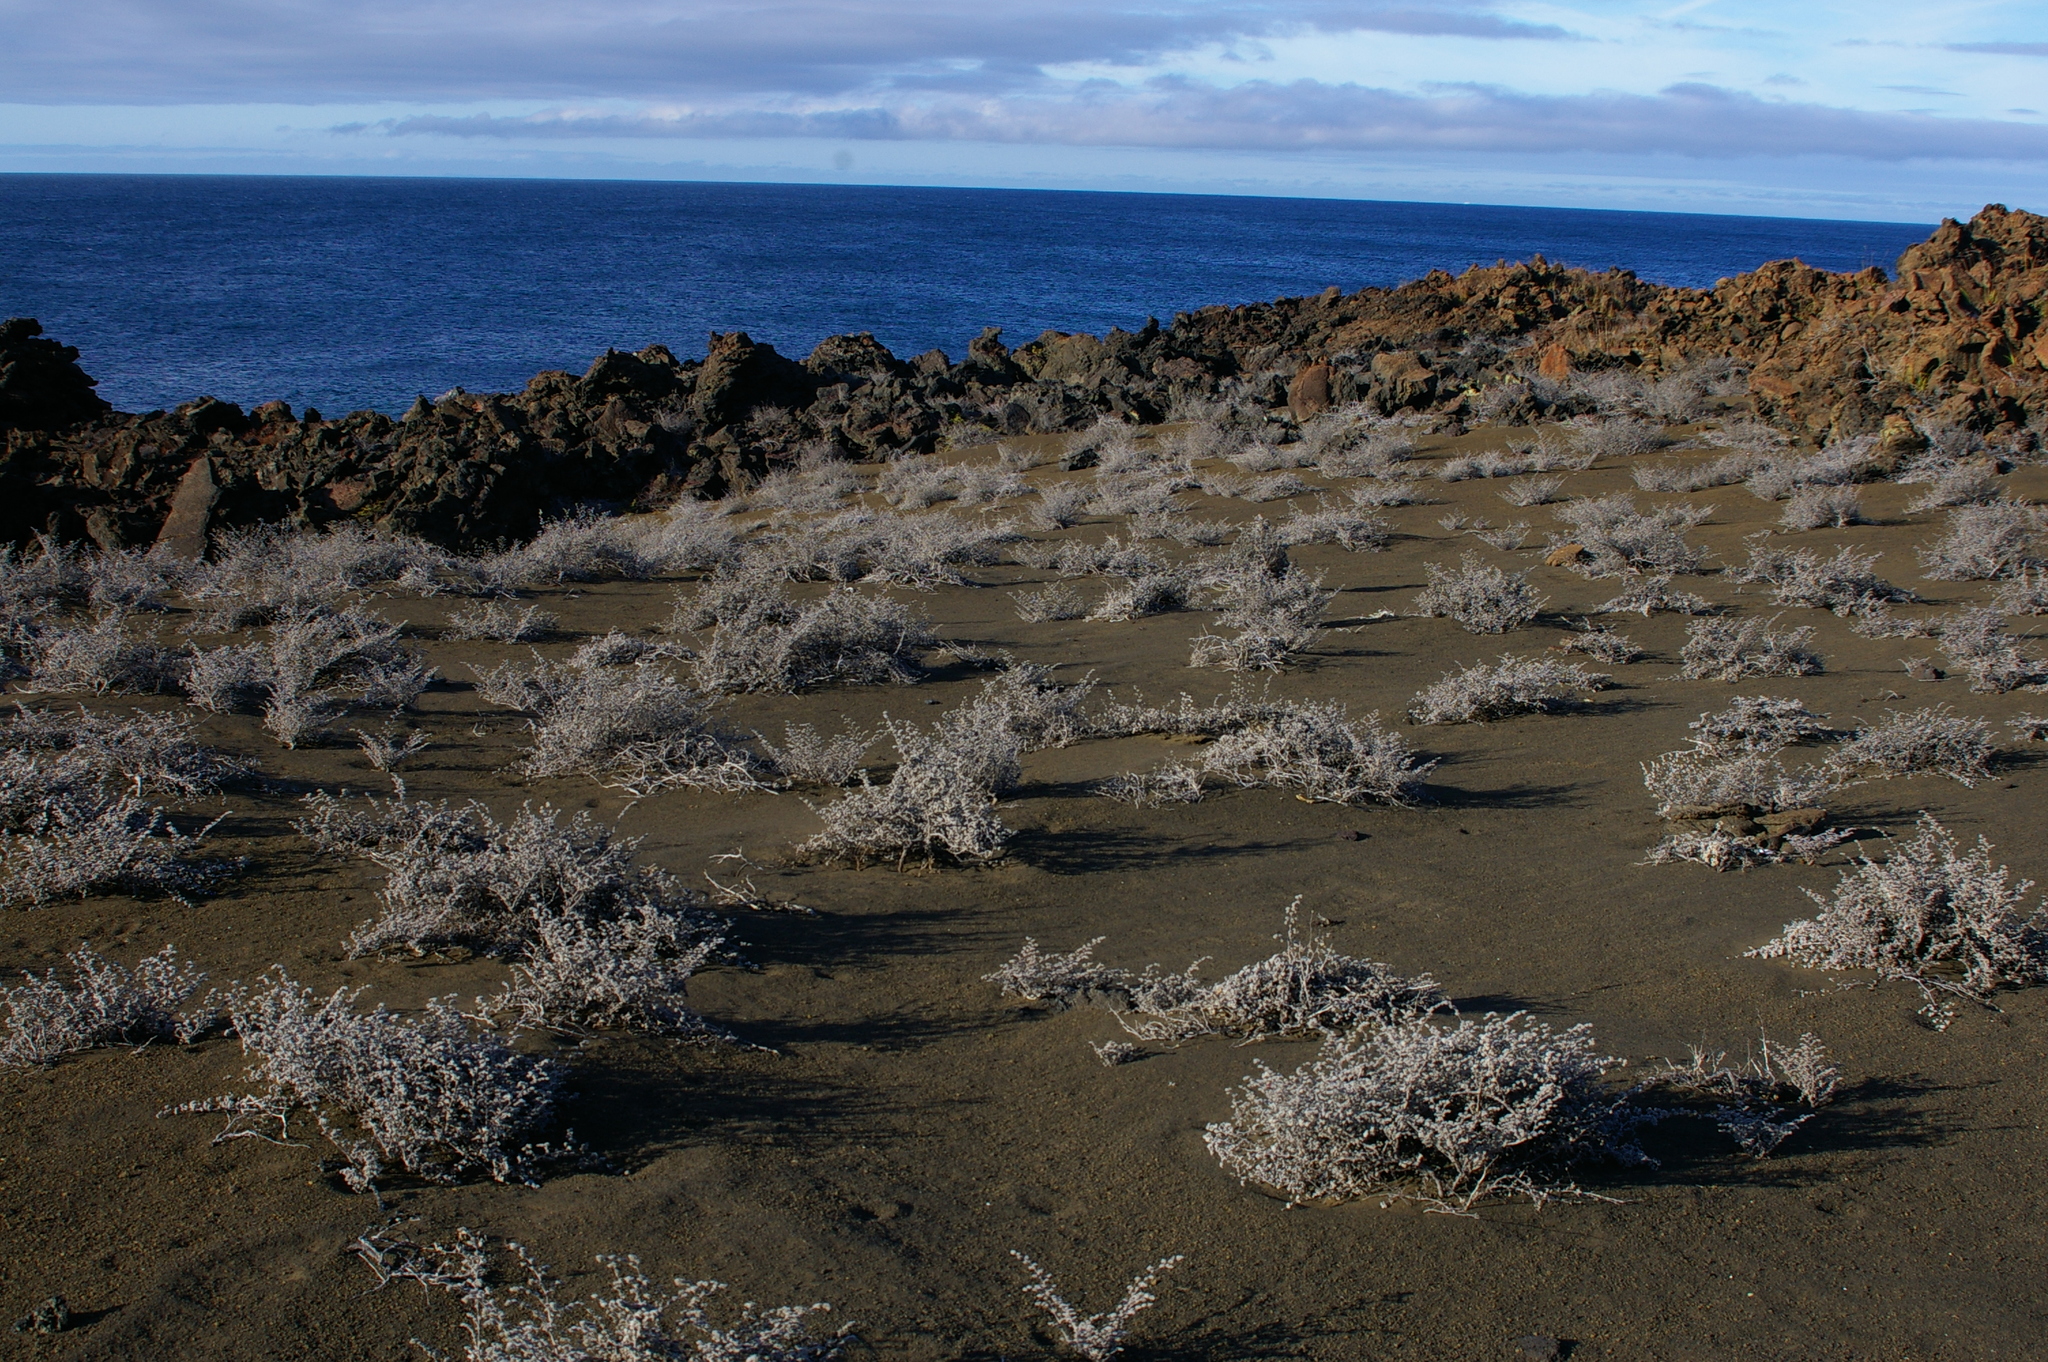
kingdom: Plantae
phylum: Tracheophyta
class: Magnoliopsida
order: Boraginales
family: Ehretiaceae
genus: Tiquilia
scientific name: Tiquilia nesiotica
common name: Gray matplant
